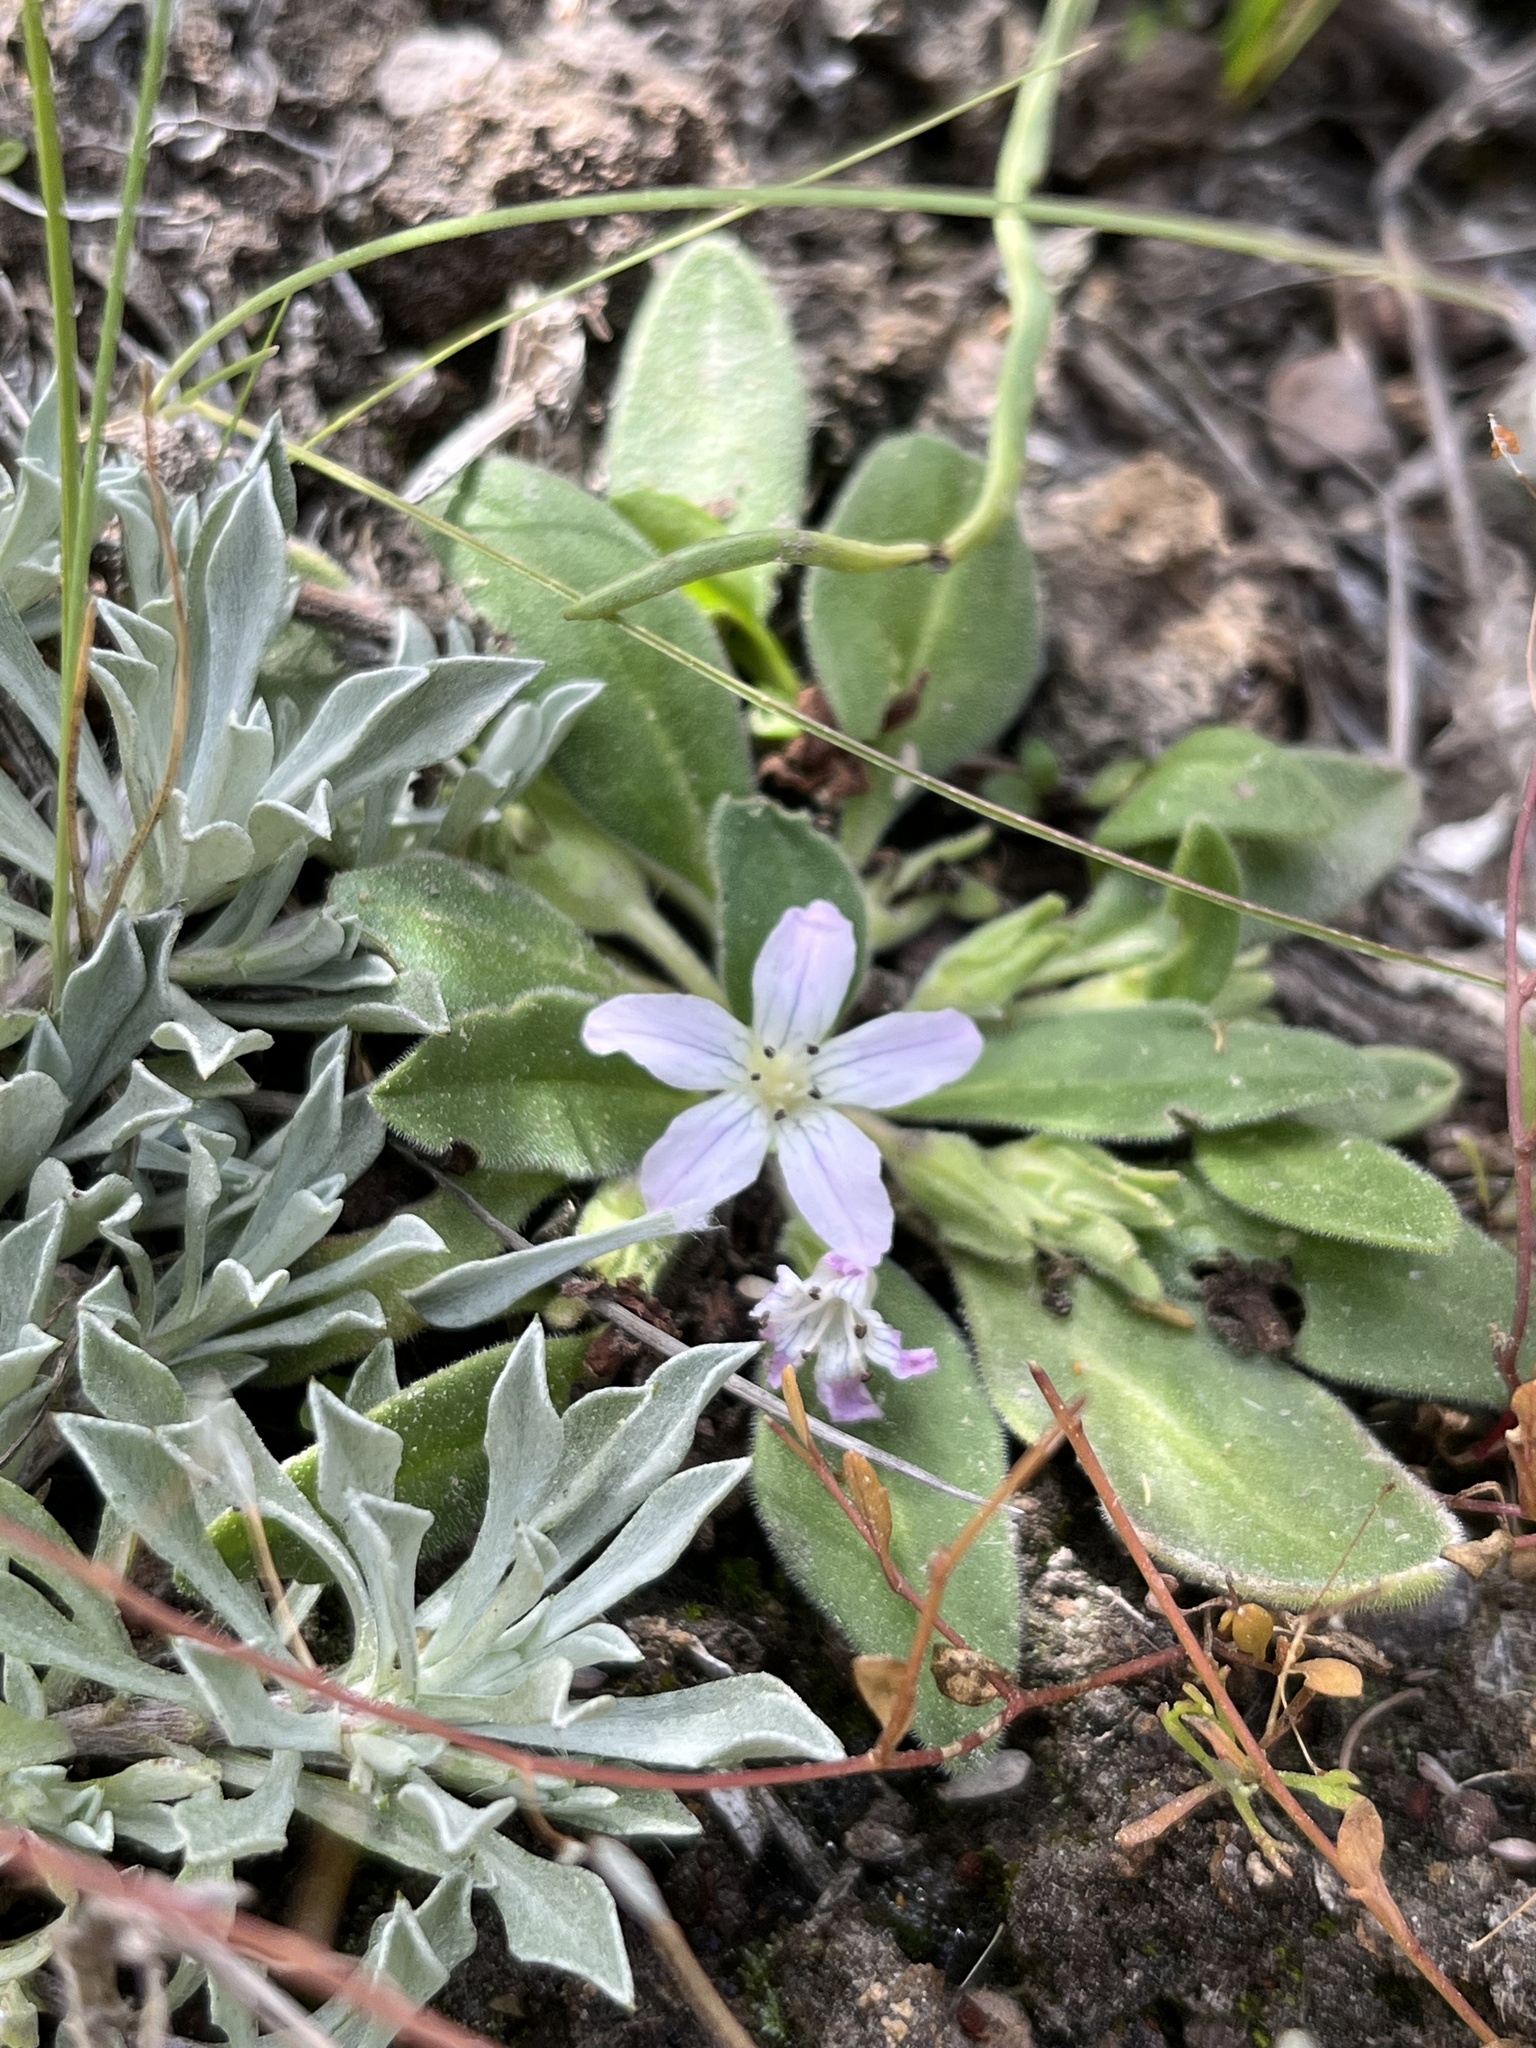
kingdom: Plantae
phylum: Tracheophyta
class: Magnoliopsida
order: Boraginales
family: Hydrophyllaceae
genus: Hesperochiron
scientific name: Hesperochiron californicus
